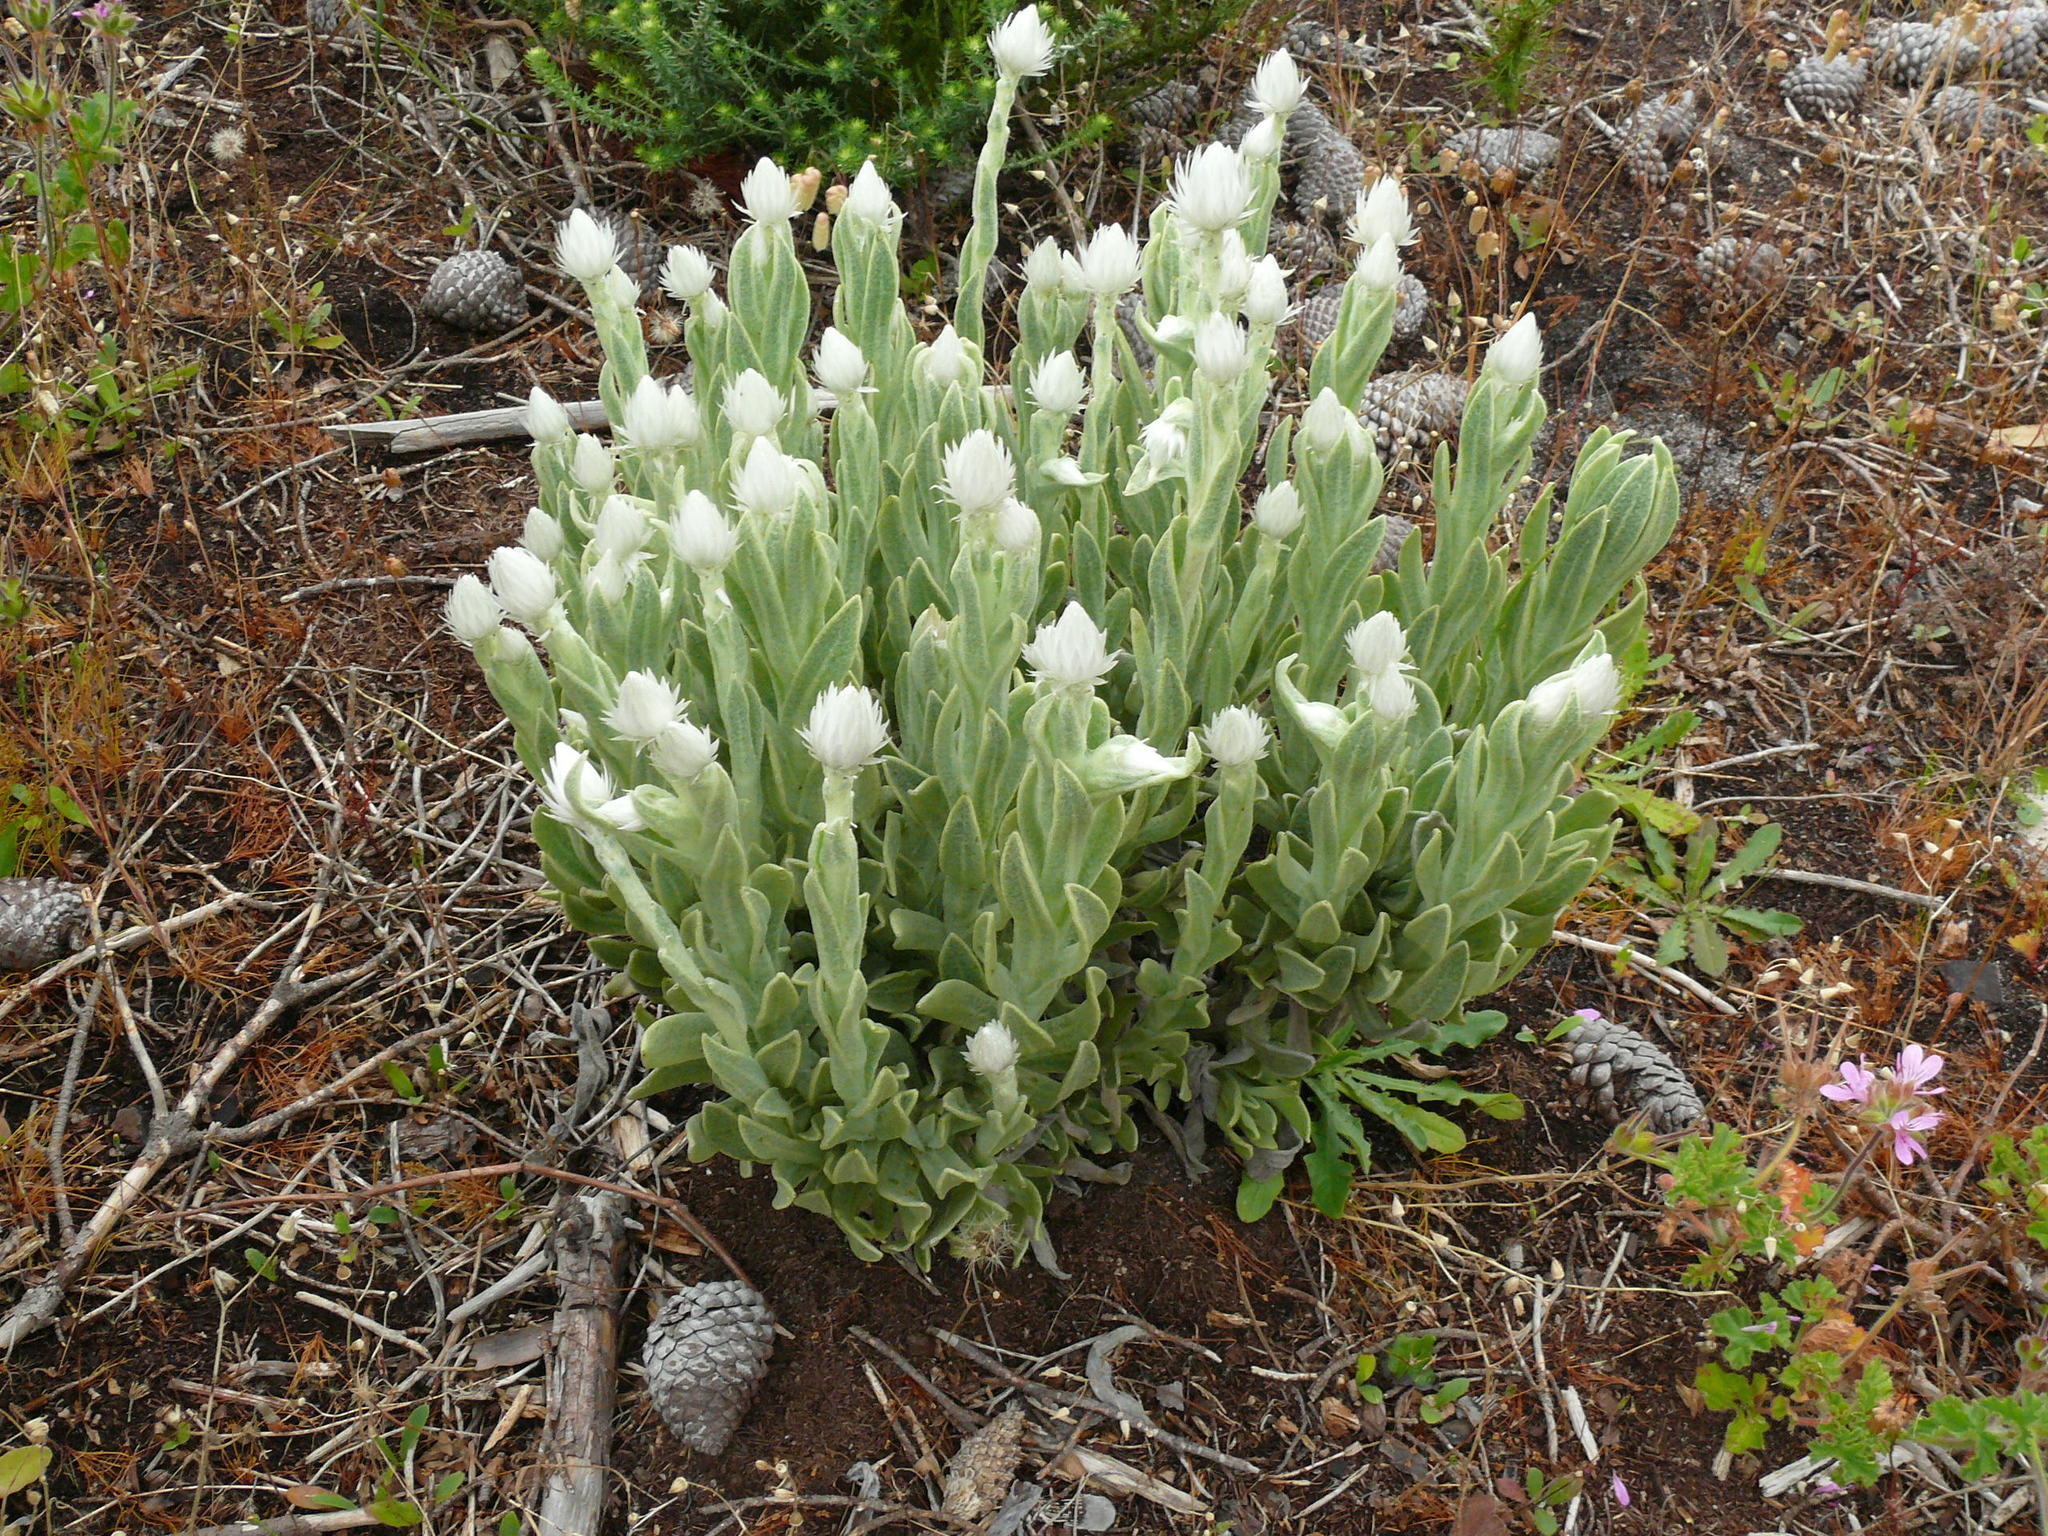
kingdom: Plantae
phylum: Tracheophyta
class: Magnoliopsida
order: Asterales
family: Asteraceae
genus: Syncarpha
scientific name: Syncarpha vestita
